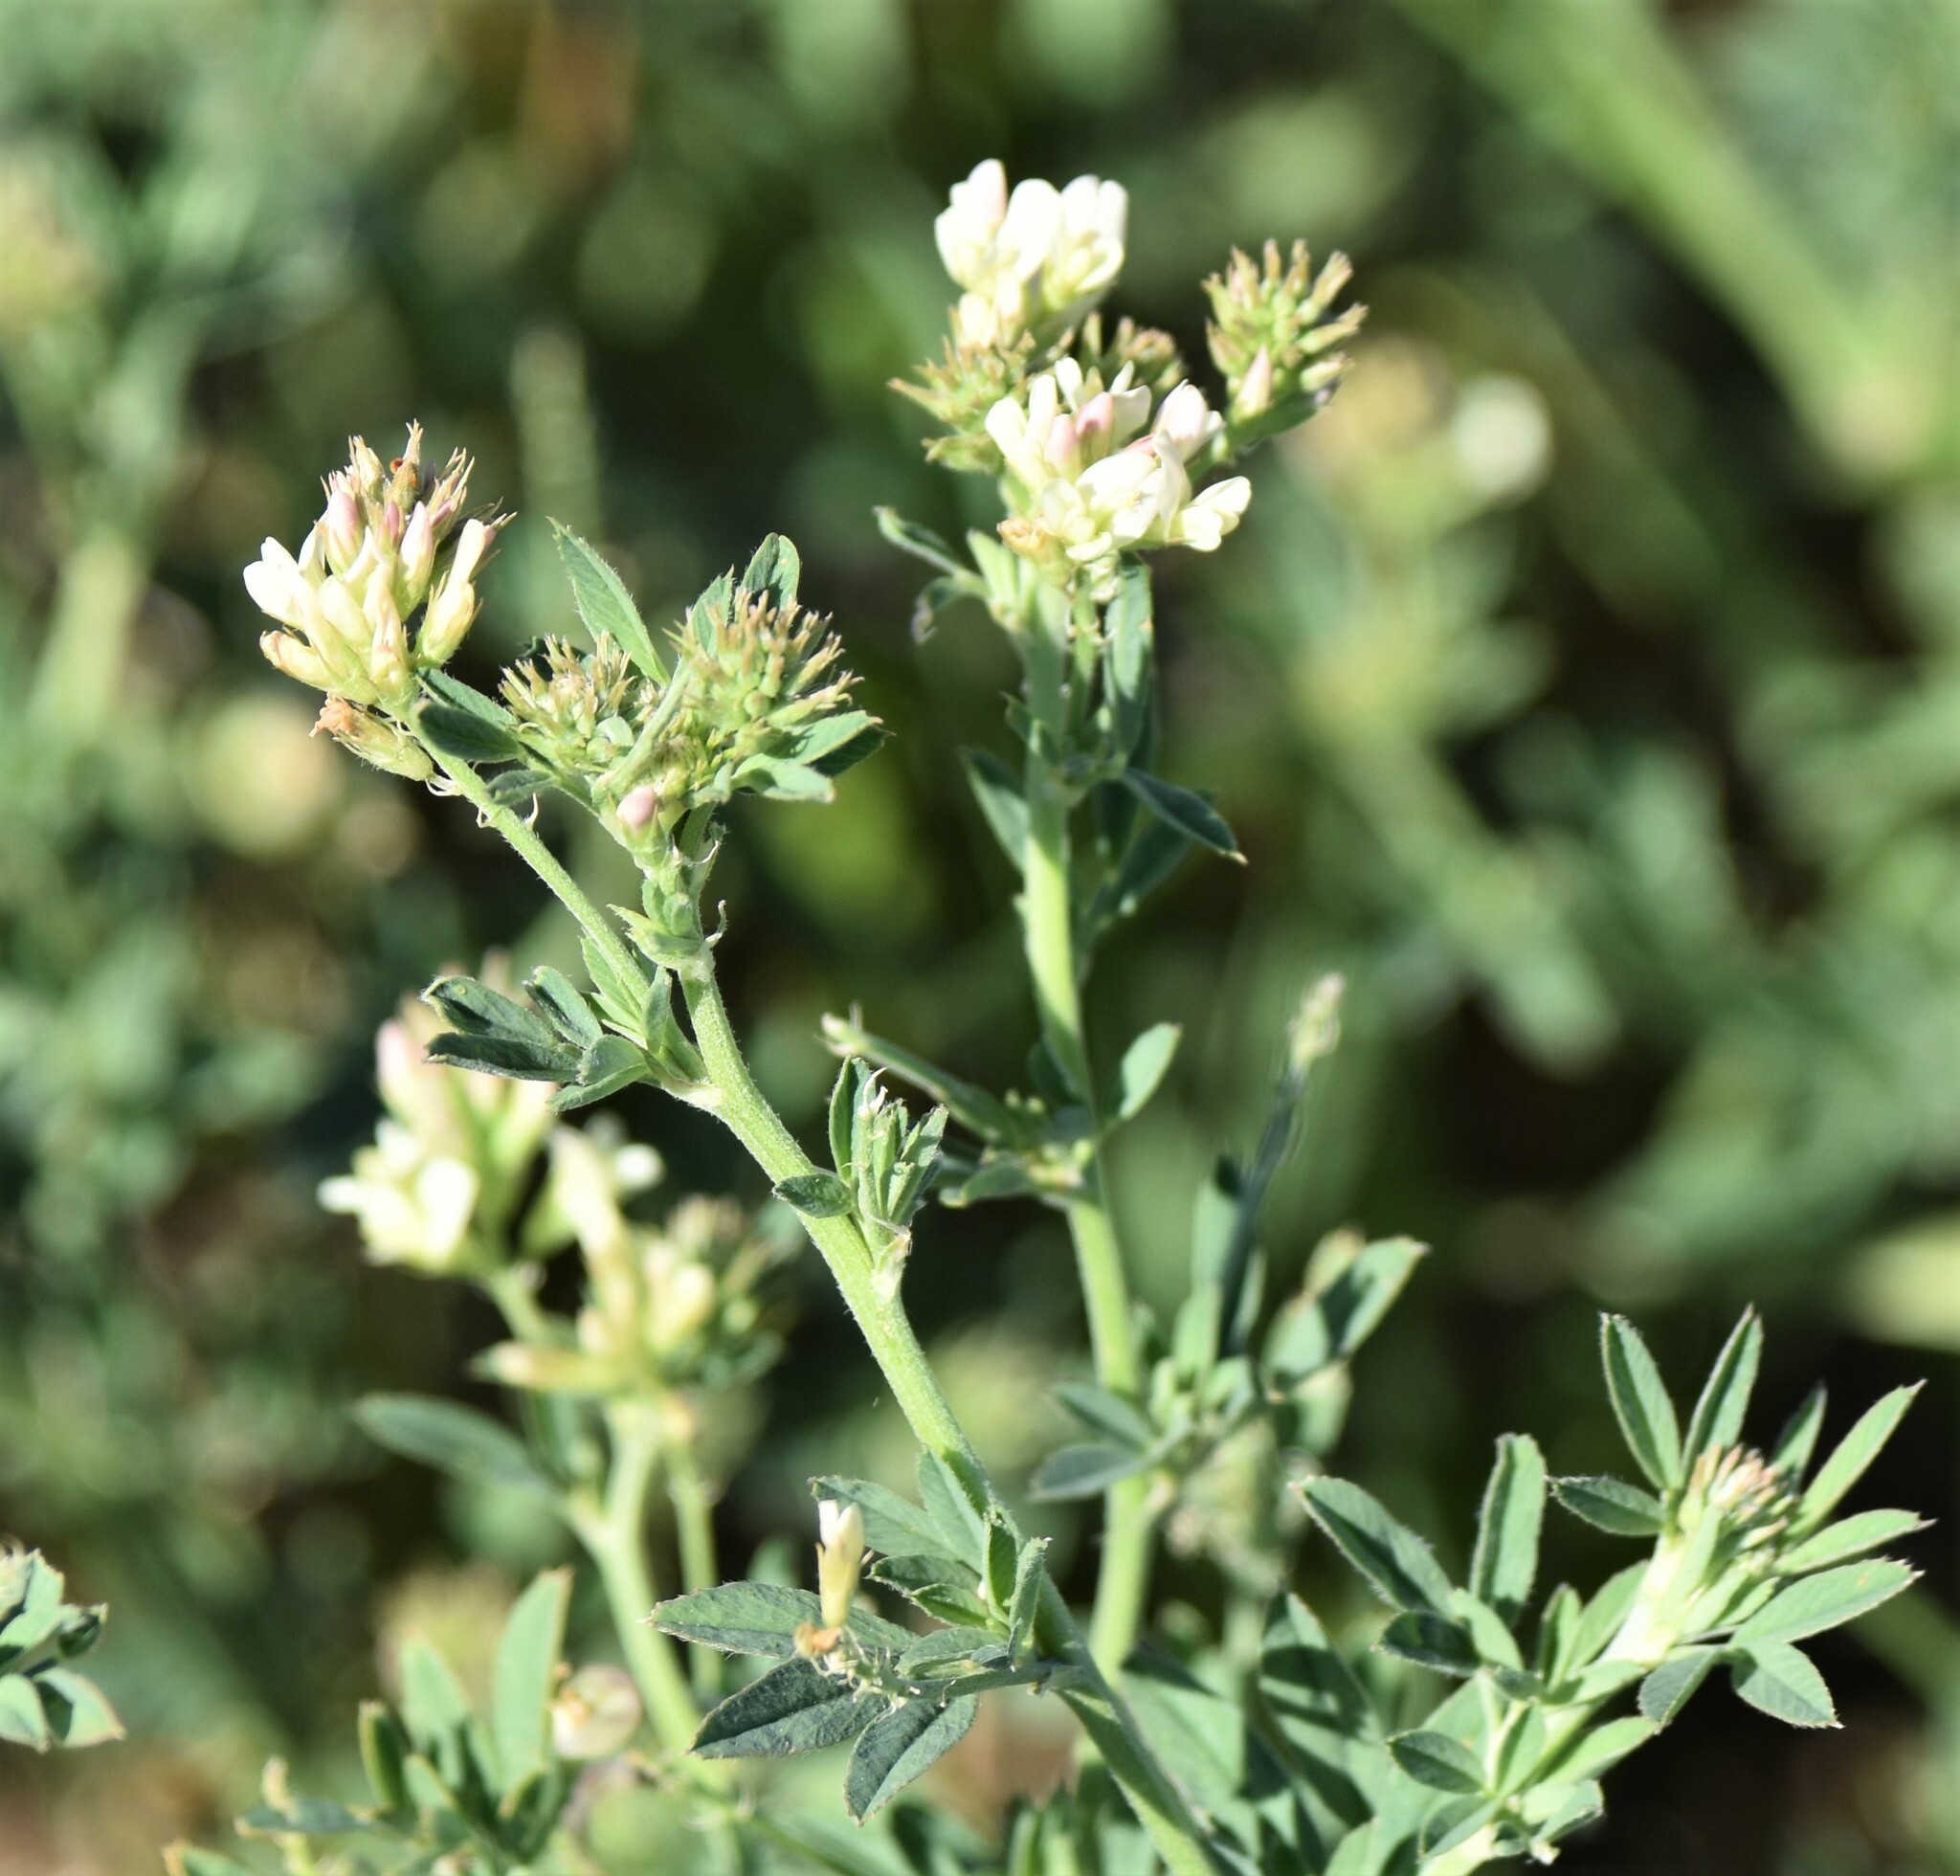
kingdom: Plantae
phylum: Tracheophyta
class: Magnoliopsida
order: Fabales
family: Fabaceae
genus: Medicago
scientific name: Medicago sativa
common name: Alfalfa
